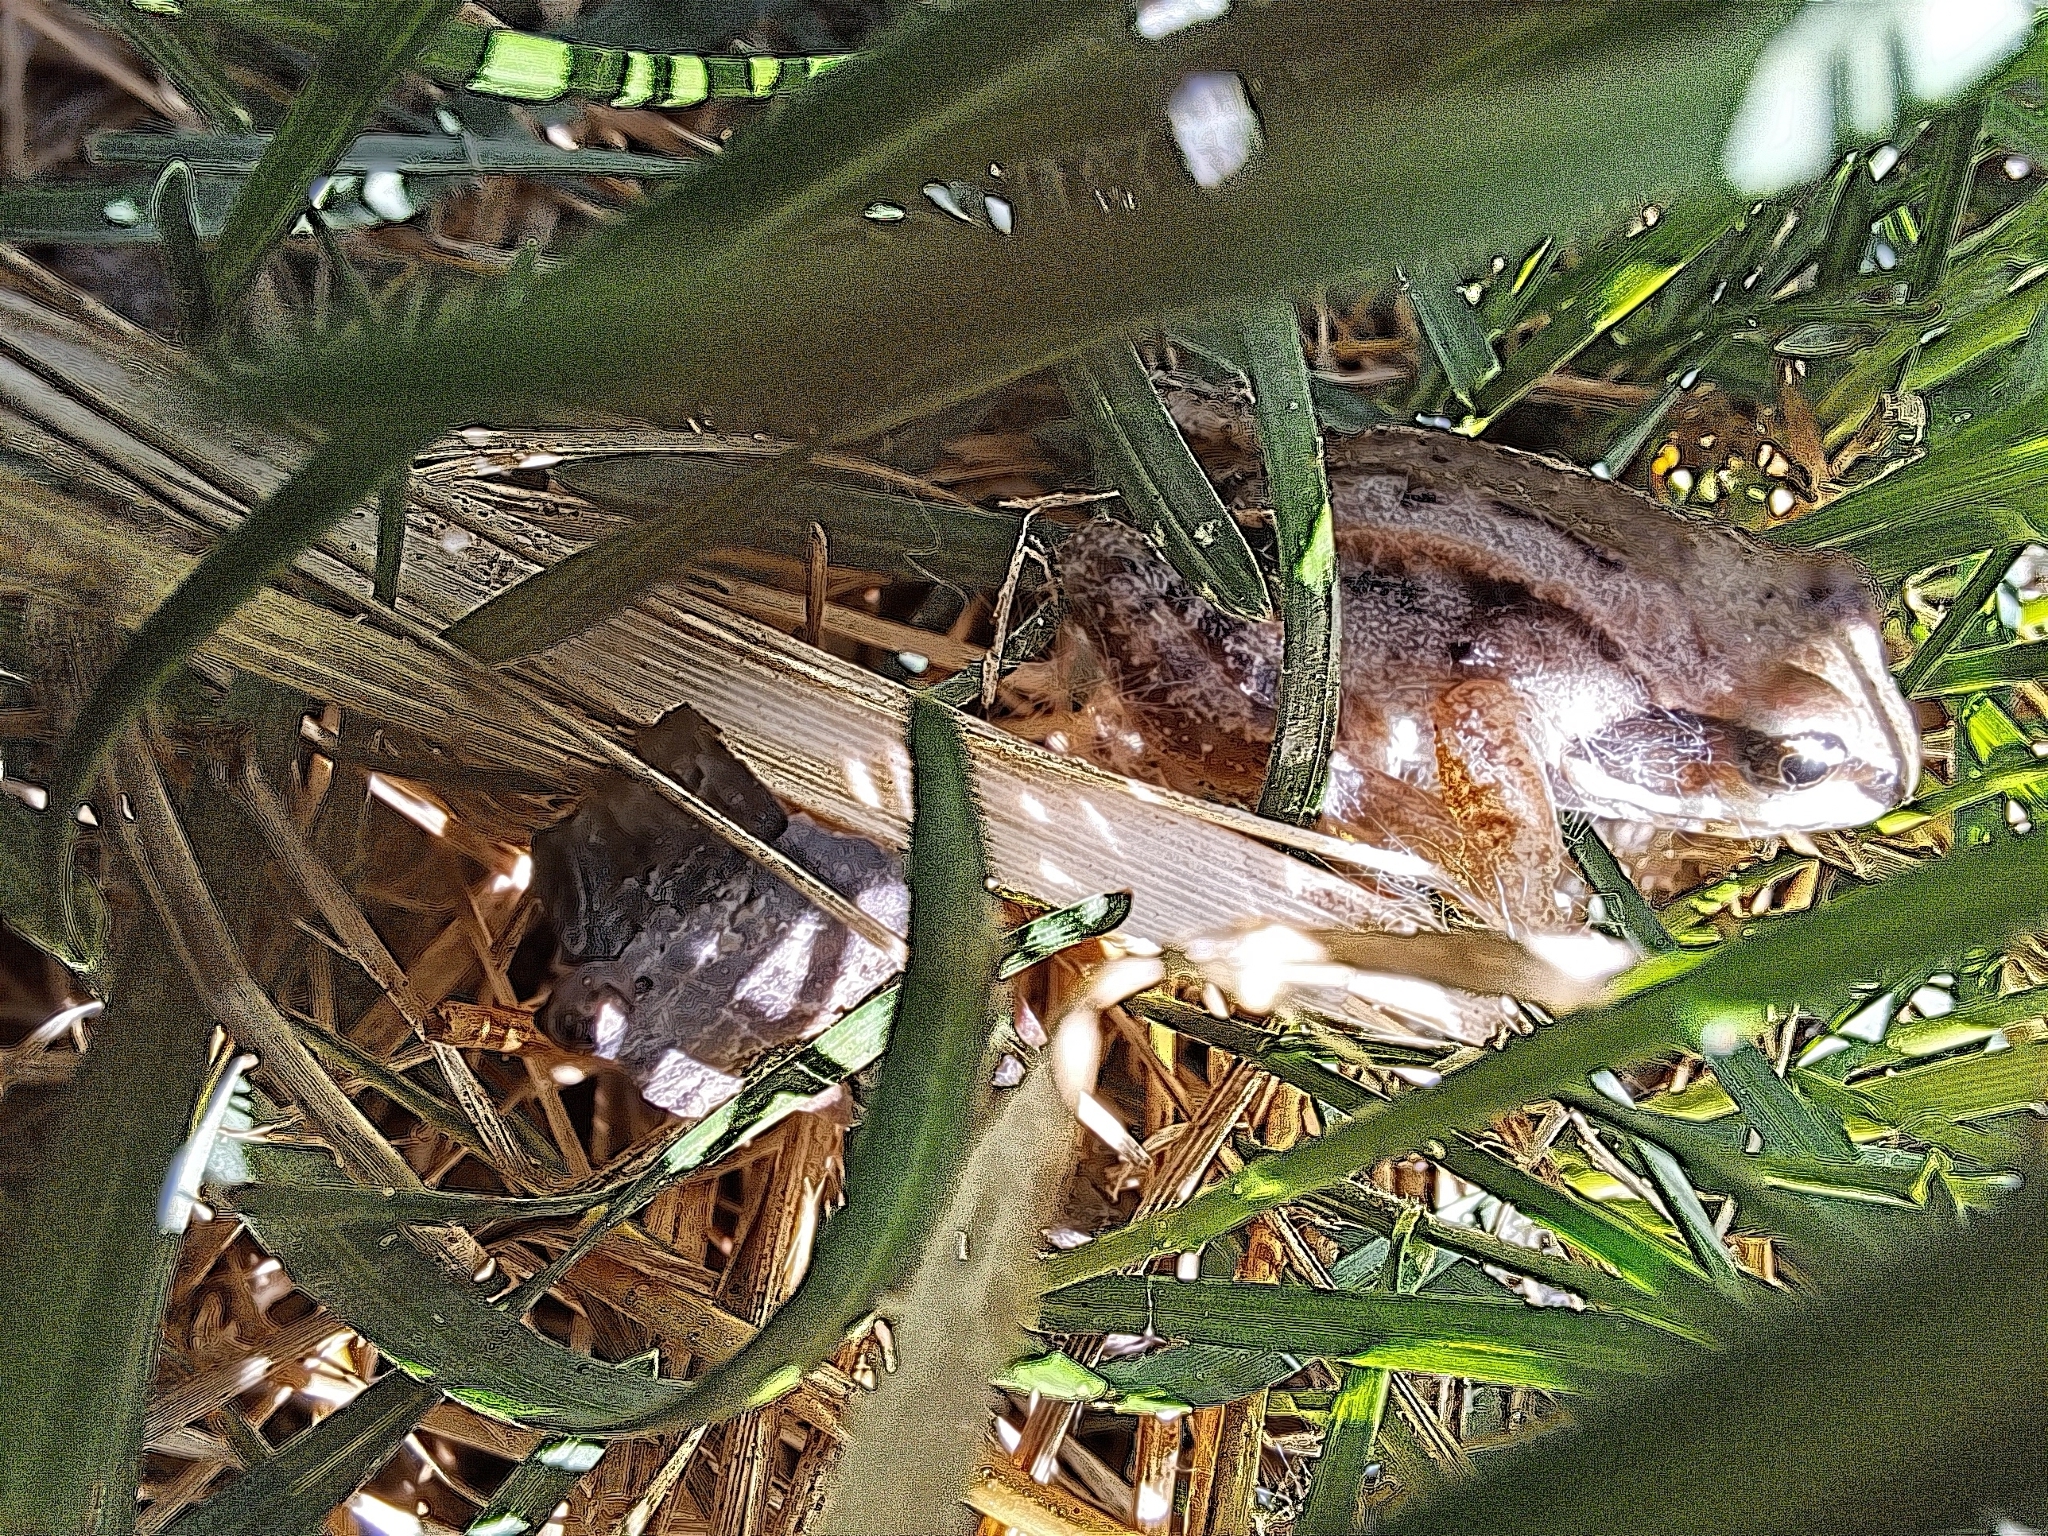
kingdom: Animalia
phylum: Chordata
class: Amphibia
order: Anura
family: Ranidae
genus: Lithobates
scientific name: Lithobates sylvaticus
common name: Wood frog
